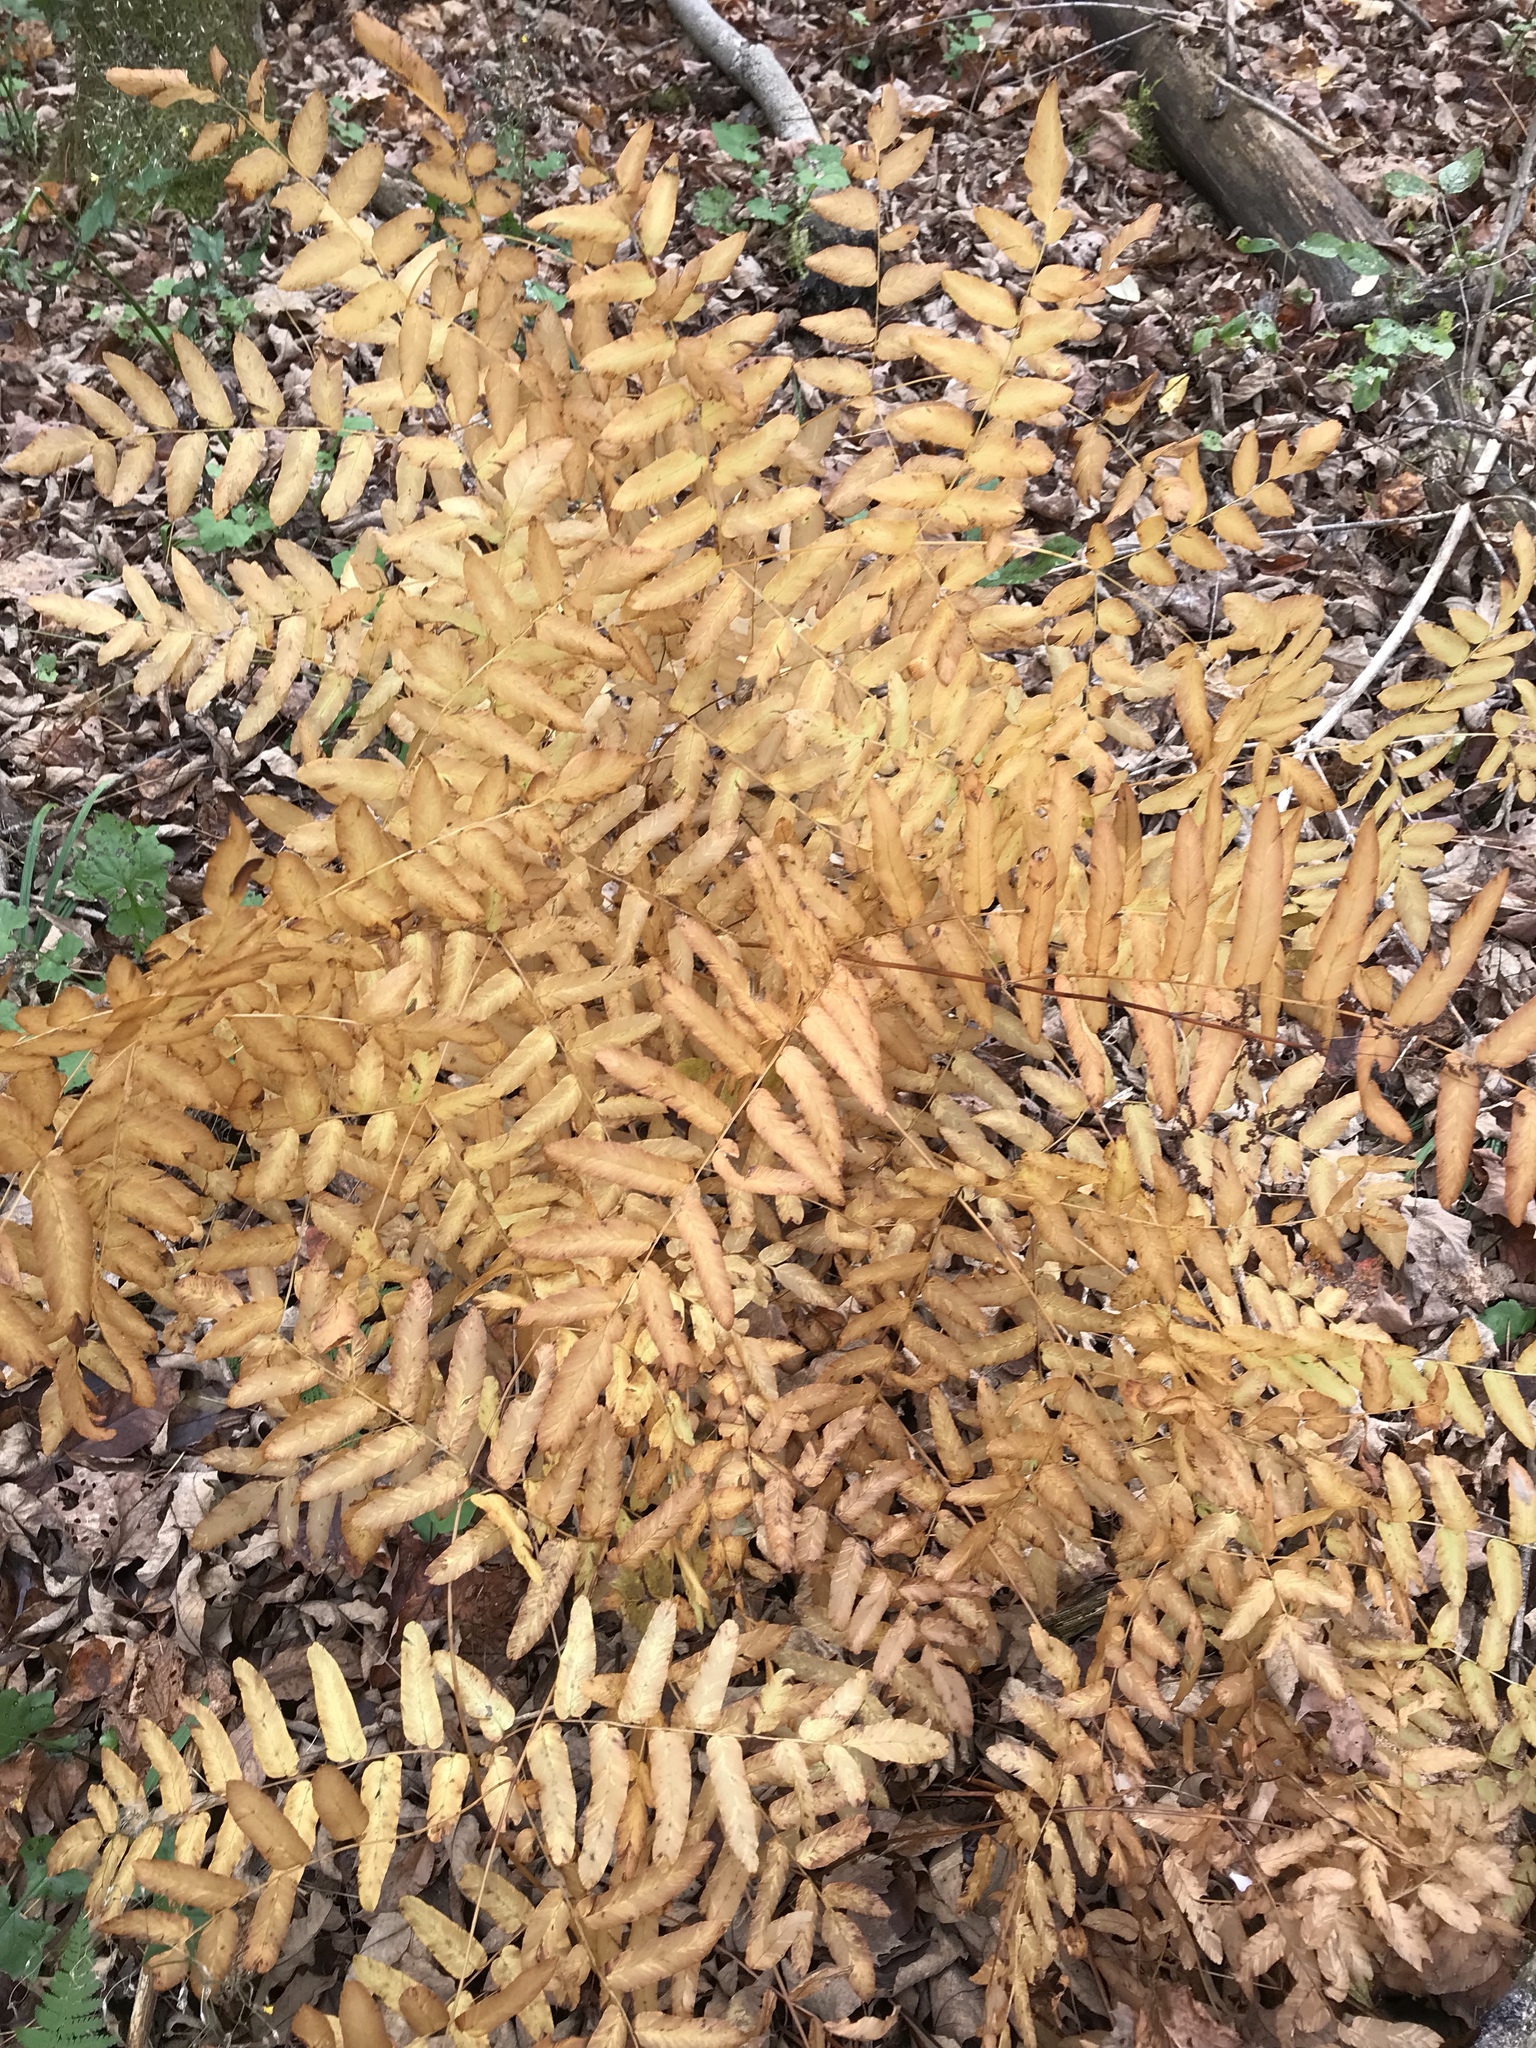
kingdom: Plantae
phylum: Tracheophyta
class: Polypodiopsida
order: Osmundales
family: Osmundaceae
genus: Osmunda
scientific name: Osmunda spectabilis
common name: American royal fern
